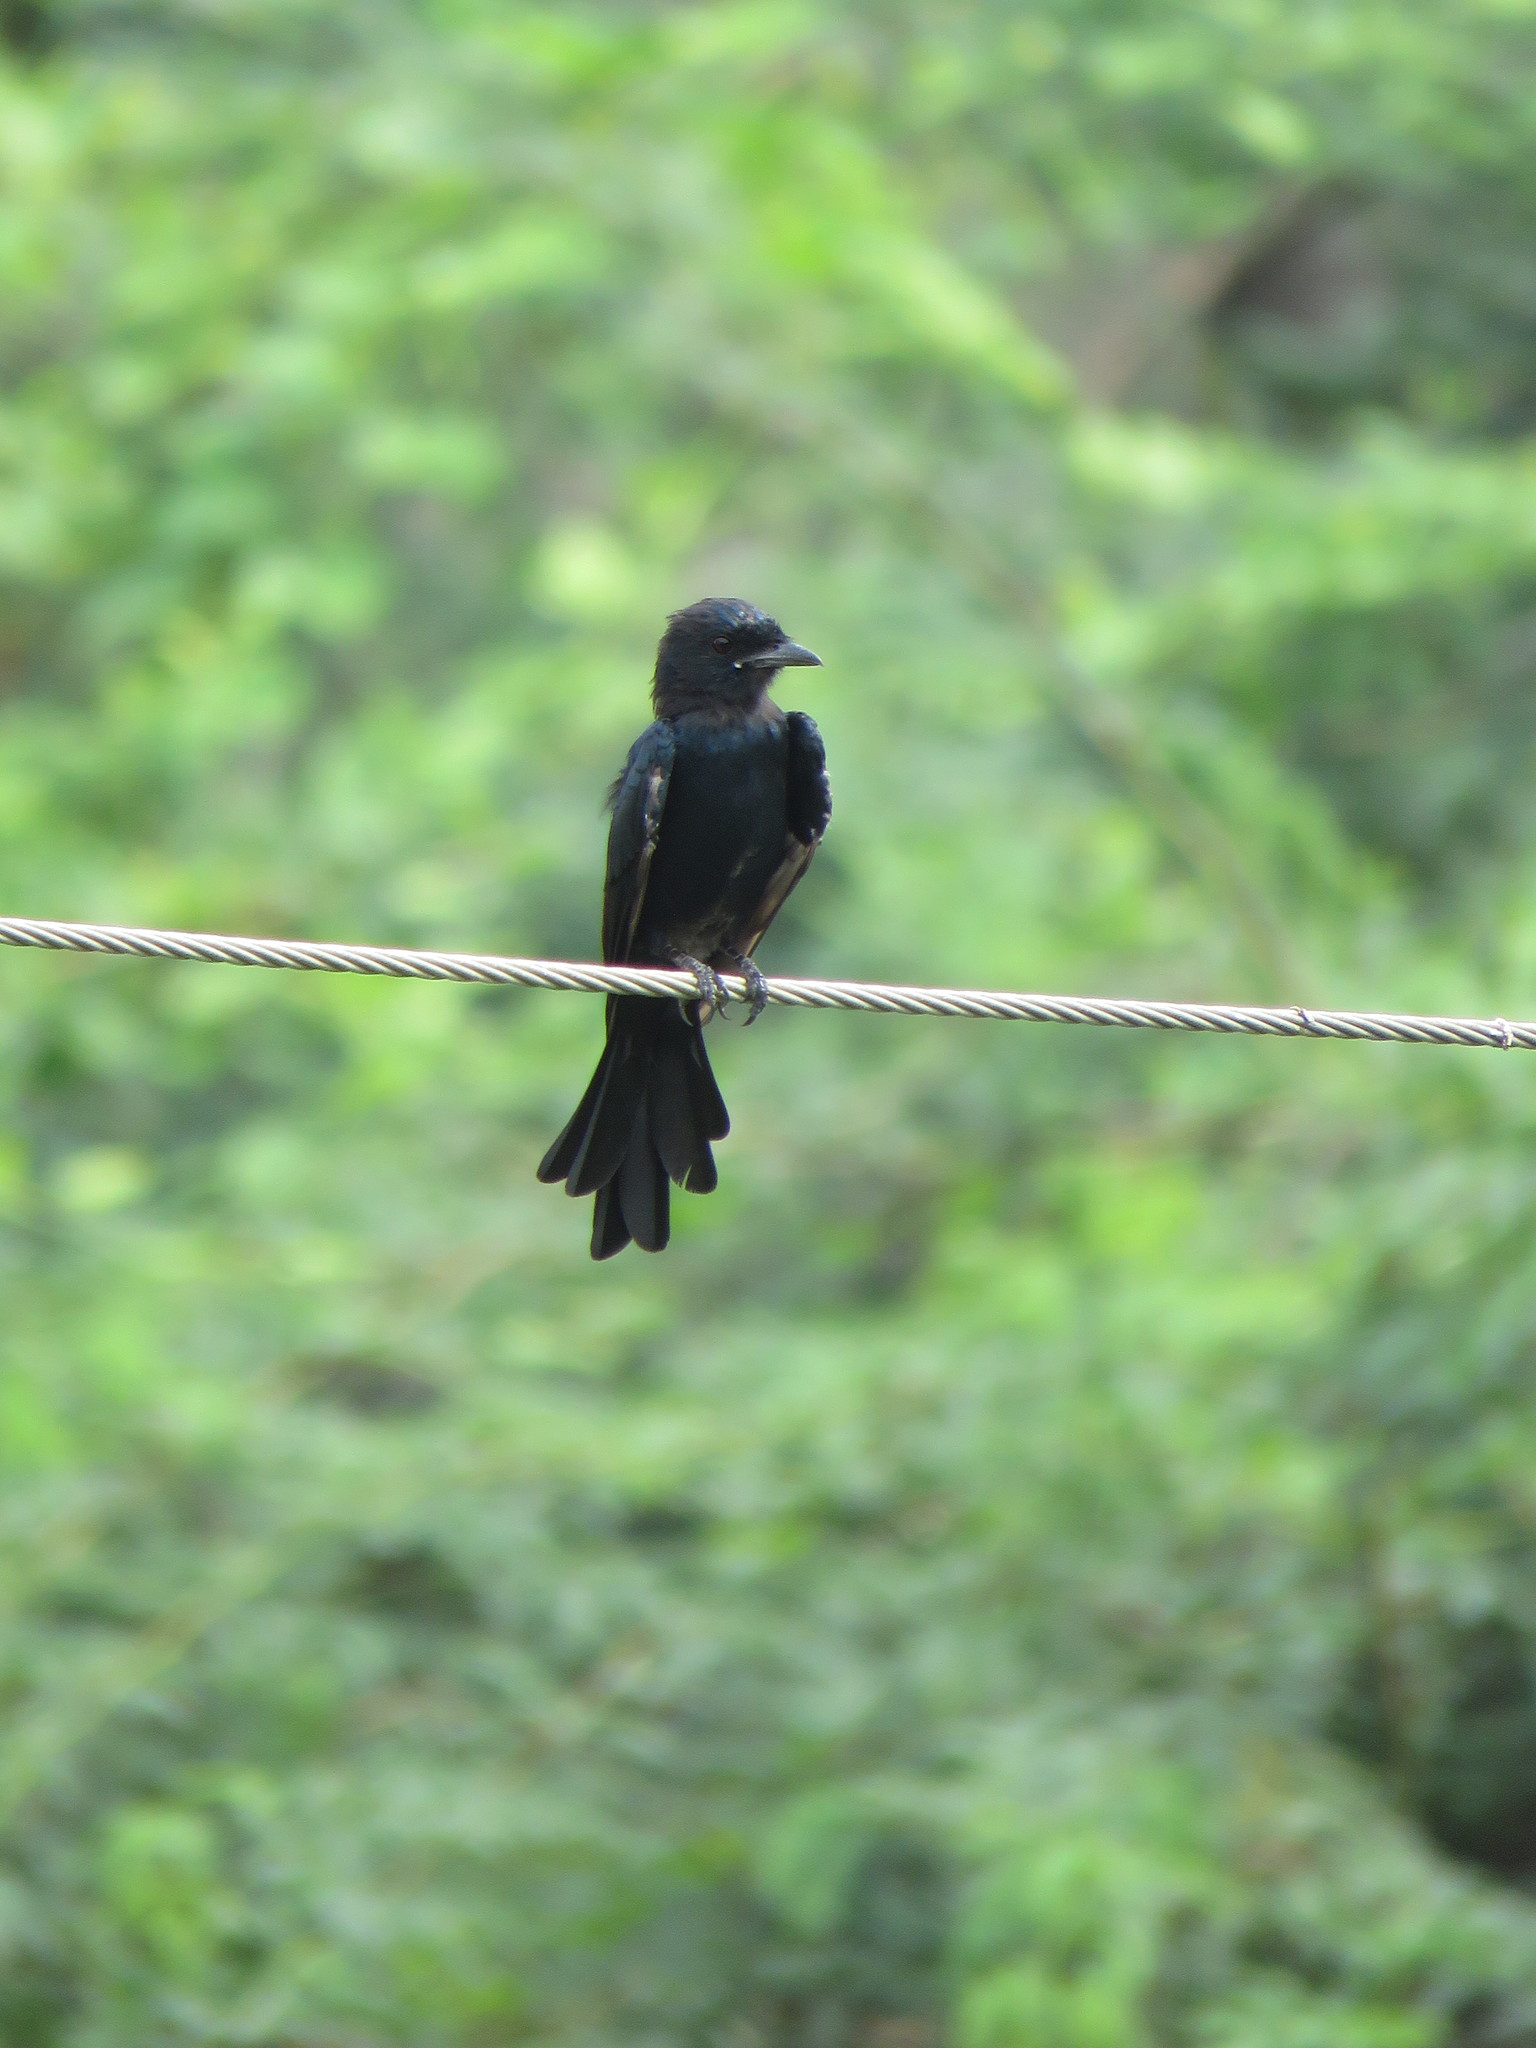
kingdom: Animalia
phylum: Chordata
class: Aves
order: Passeriformes
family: Dicruridae
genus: Dicrurus
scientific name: Dicrurus macrocercus
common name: Black drongo
